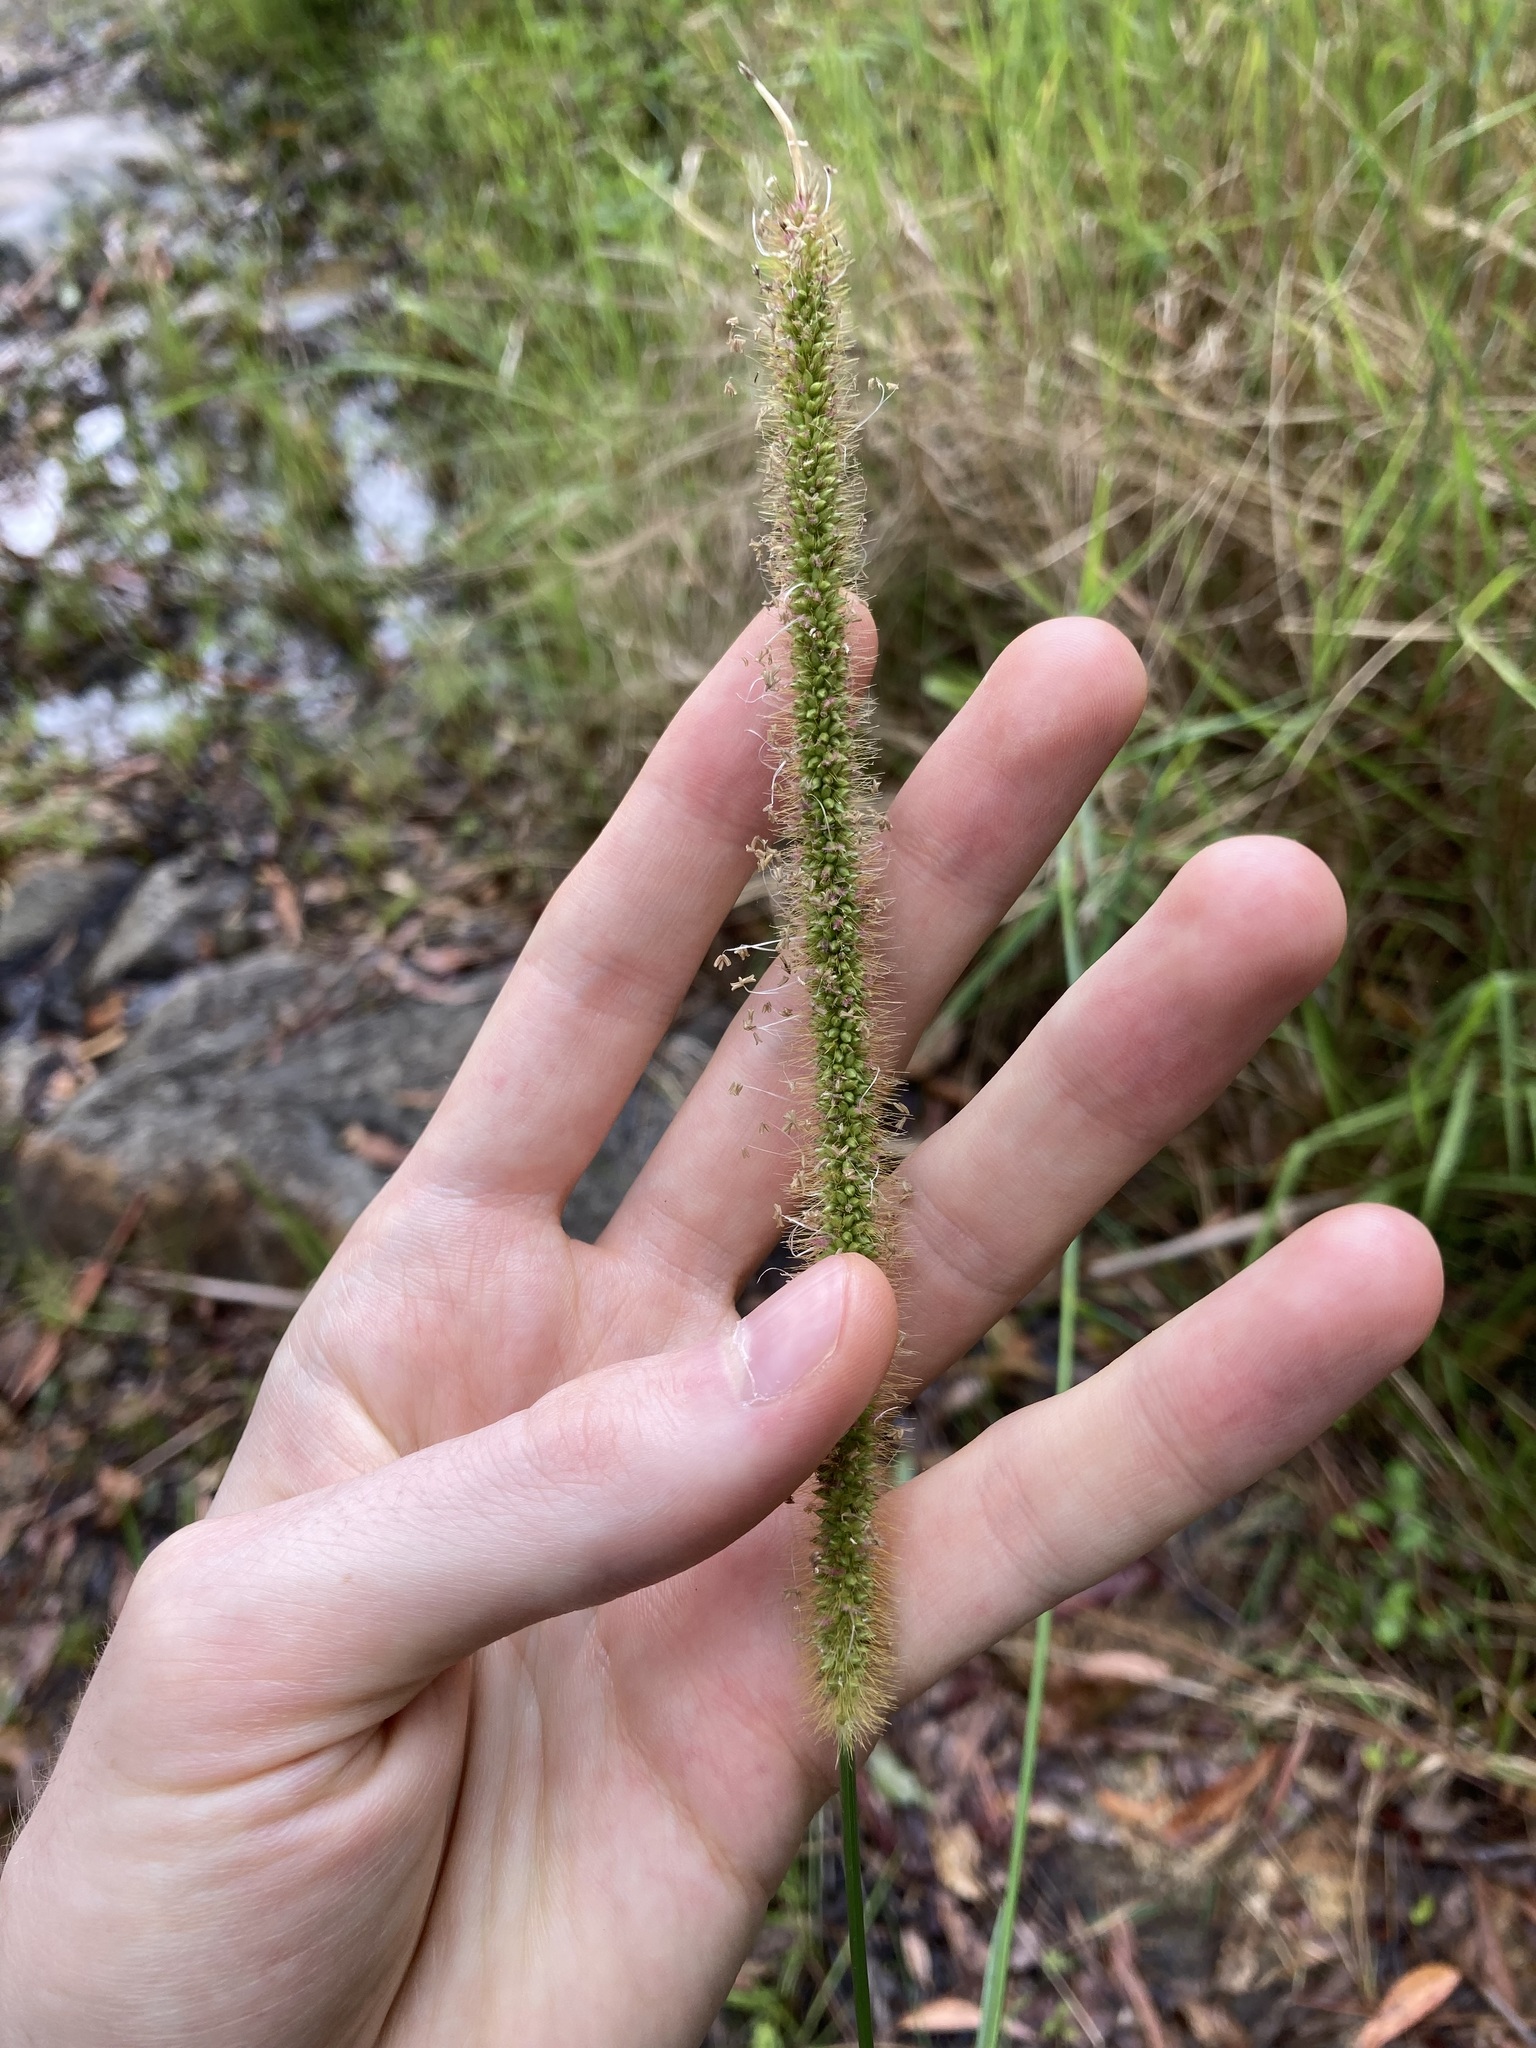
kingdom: Plantae
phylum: Tracheophyta
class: Liliopsida
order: Poales
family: Poaceae
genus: Setaria
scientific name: Setaria sphacelata
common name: African bristlegrass
